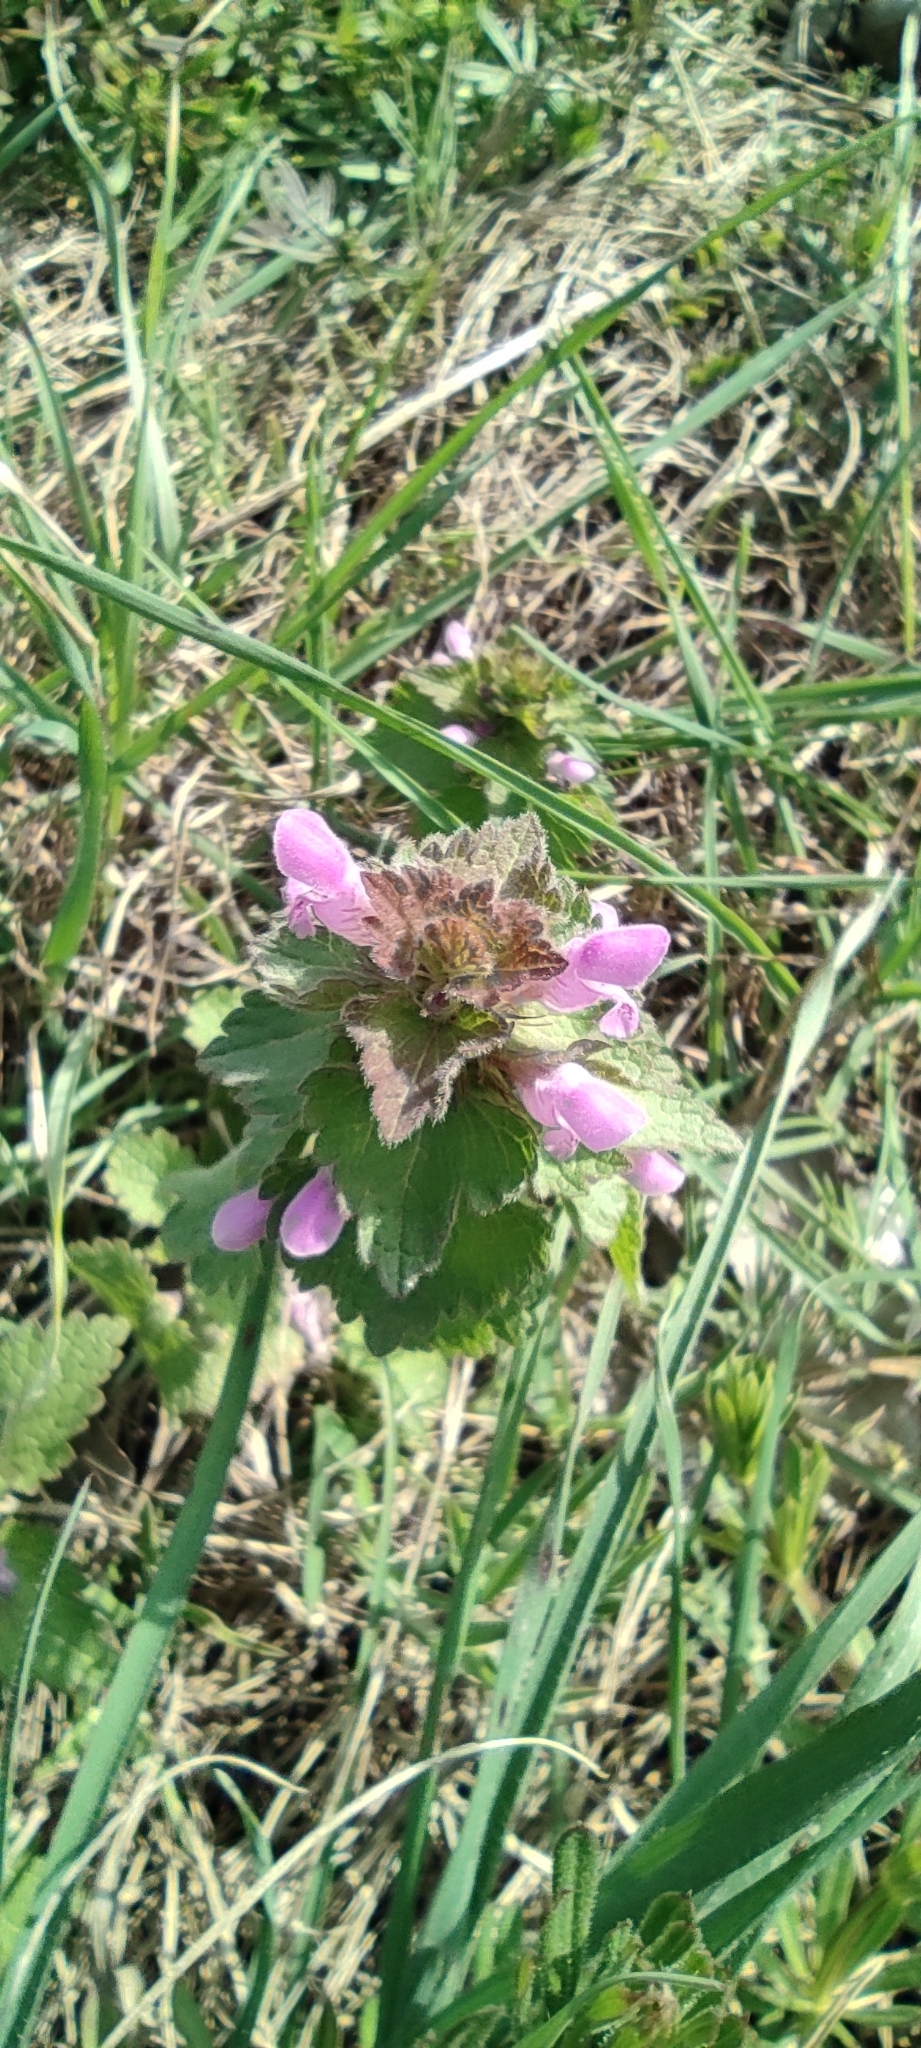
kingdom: Plantae
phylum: Tracheophyta
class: Magnoliopsida
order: Lamiales
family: Lamiaceae
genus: Lamium
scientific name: Lamium purpureum
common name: Red dead-nettle
